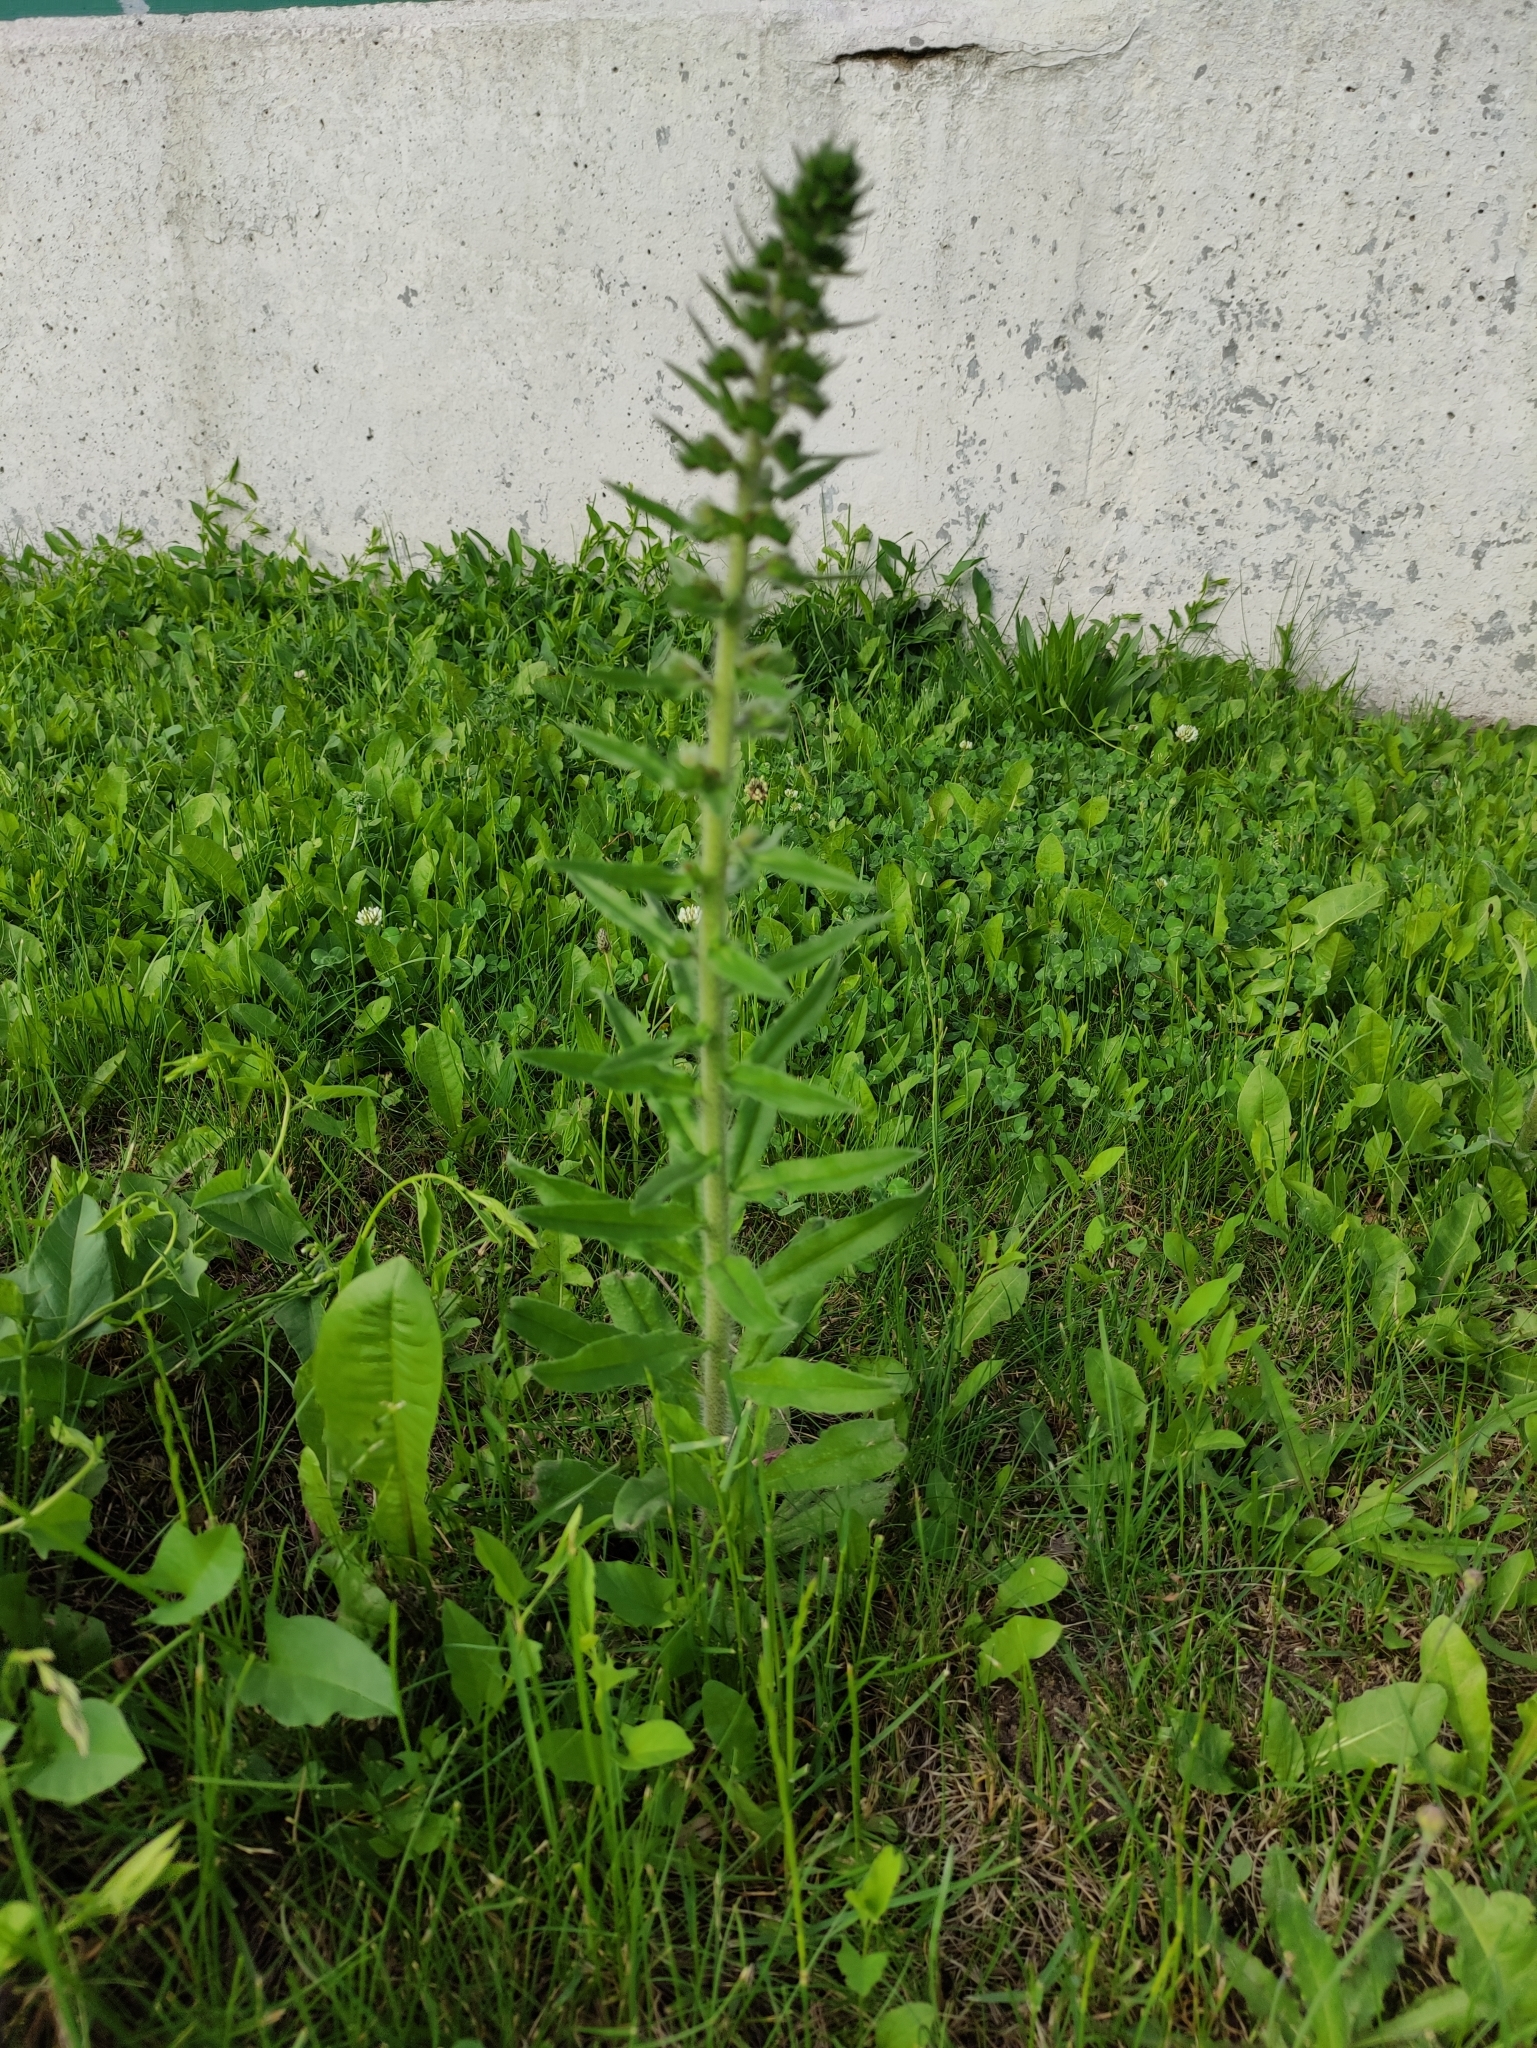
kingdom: Plantae
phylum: Tracheophyta
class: Magnoliopsida
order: Boraginales
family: Boraginaceae
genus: Echium
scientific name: Echium vulgare
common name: Common viper's bugloss
